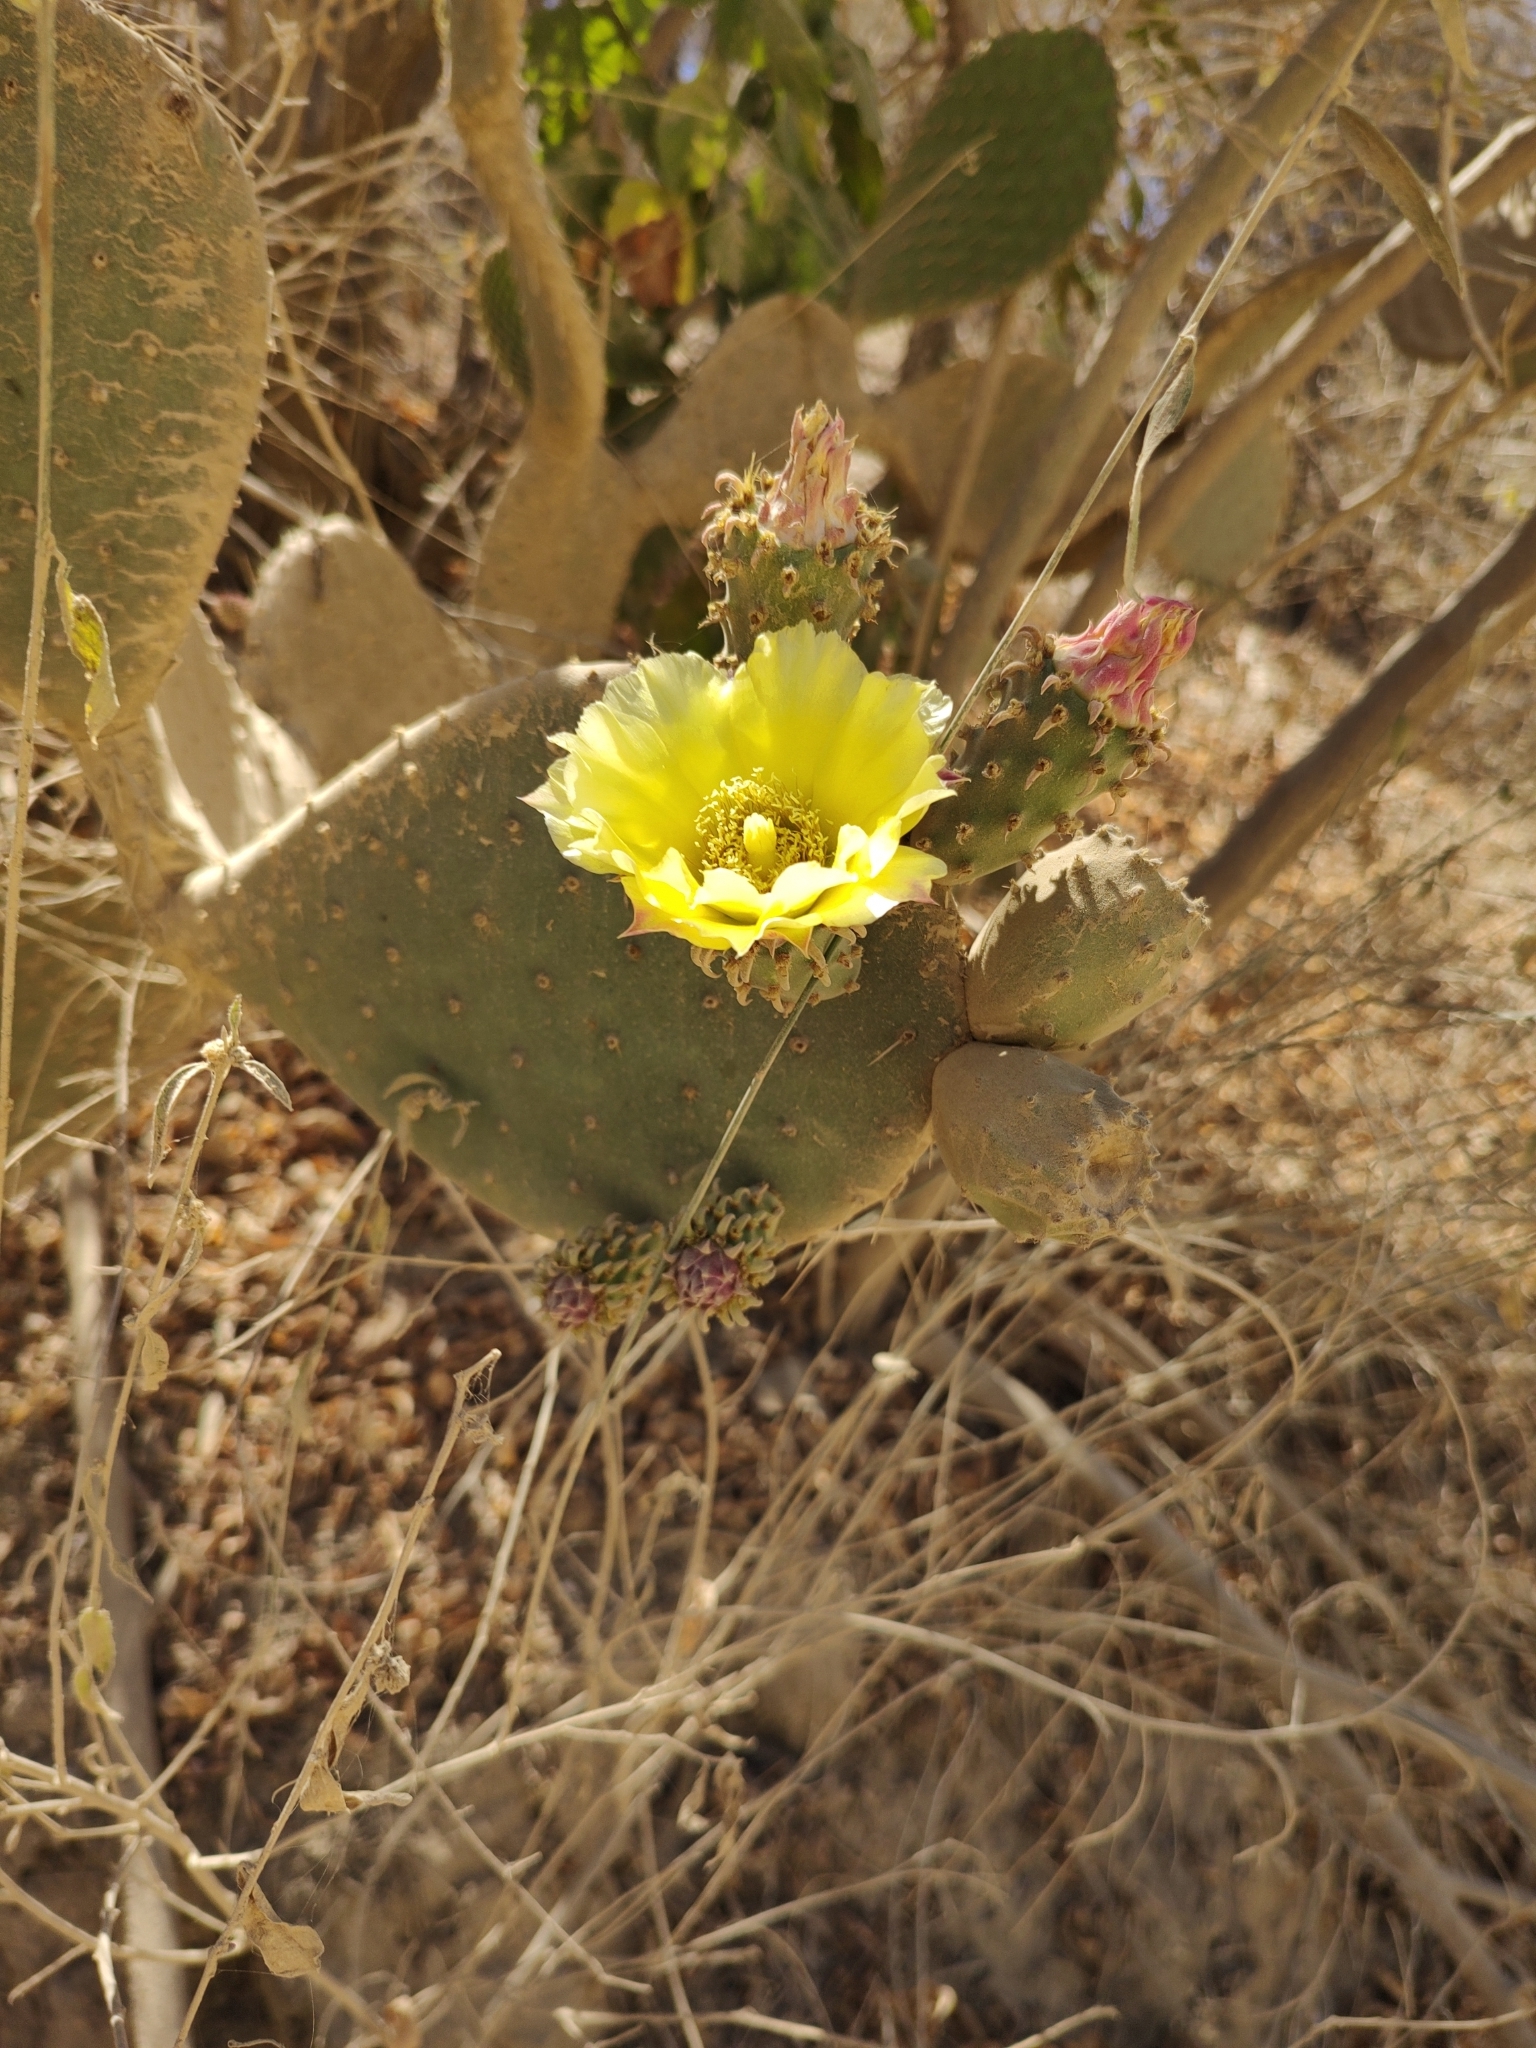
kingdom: Plantae
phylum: Tracheophyta
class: Magnoliopsida
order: Caryophyllales
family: Cactaceae
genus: Opuntia
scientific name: Opuntia caboensis
